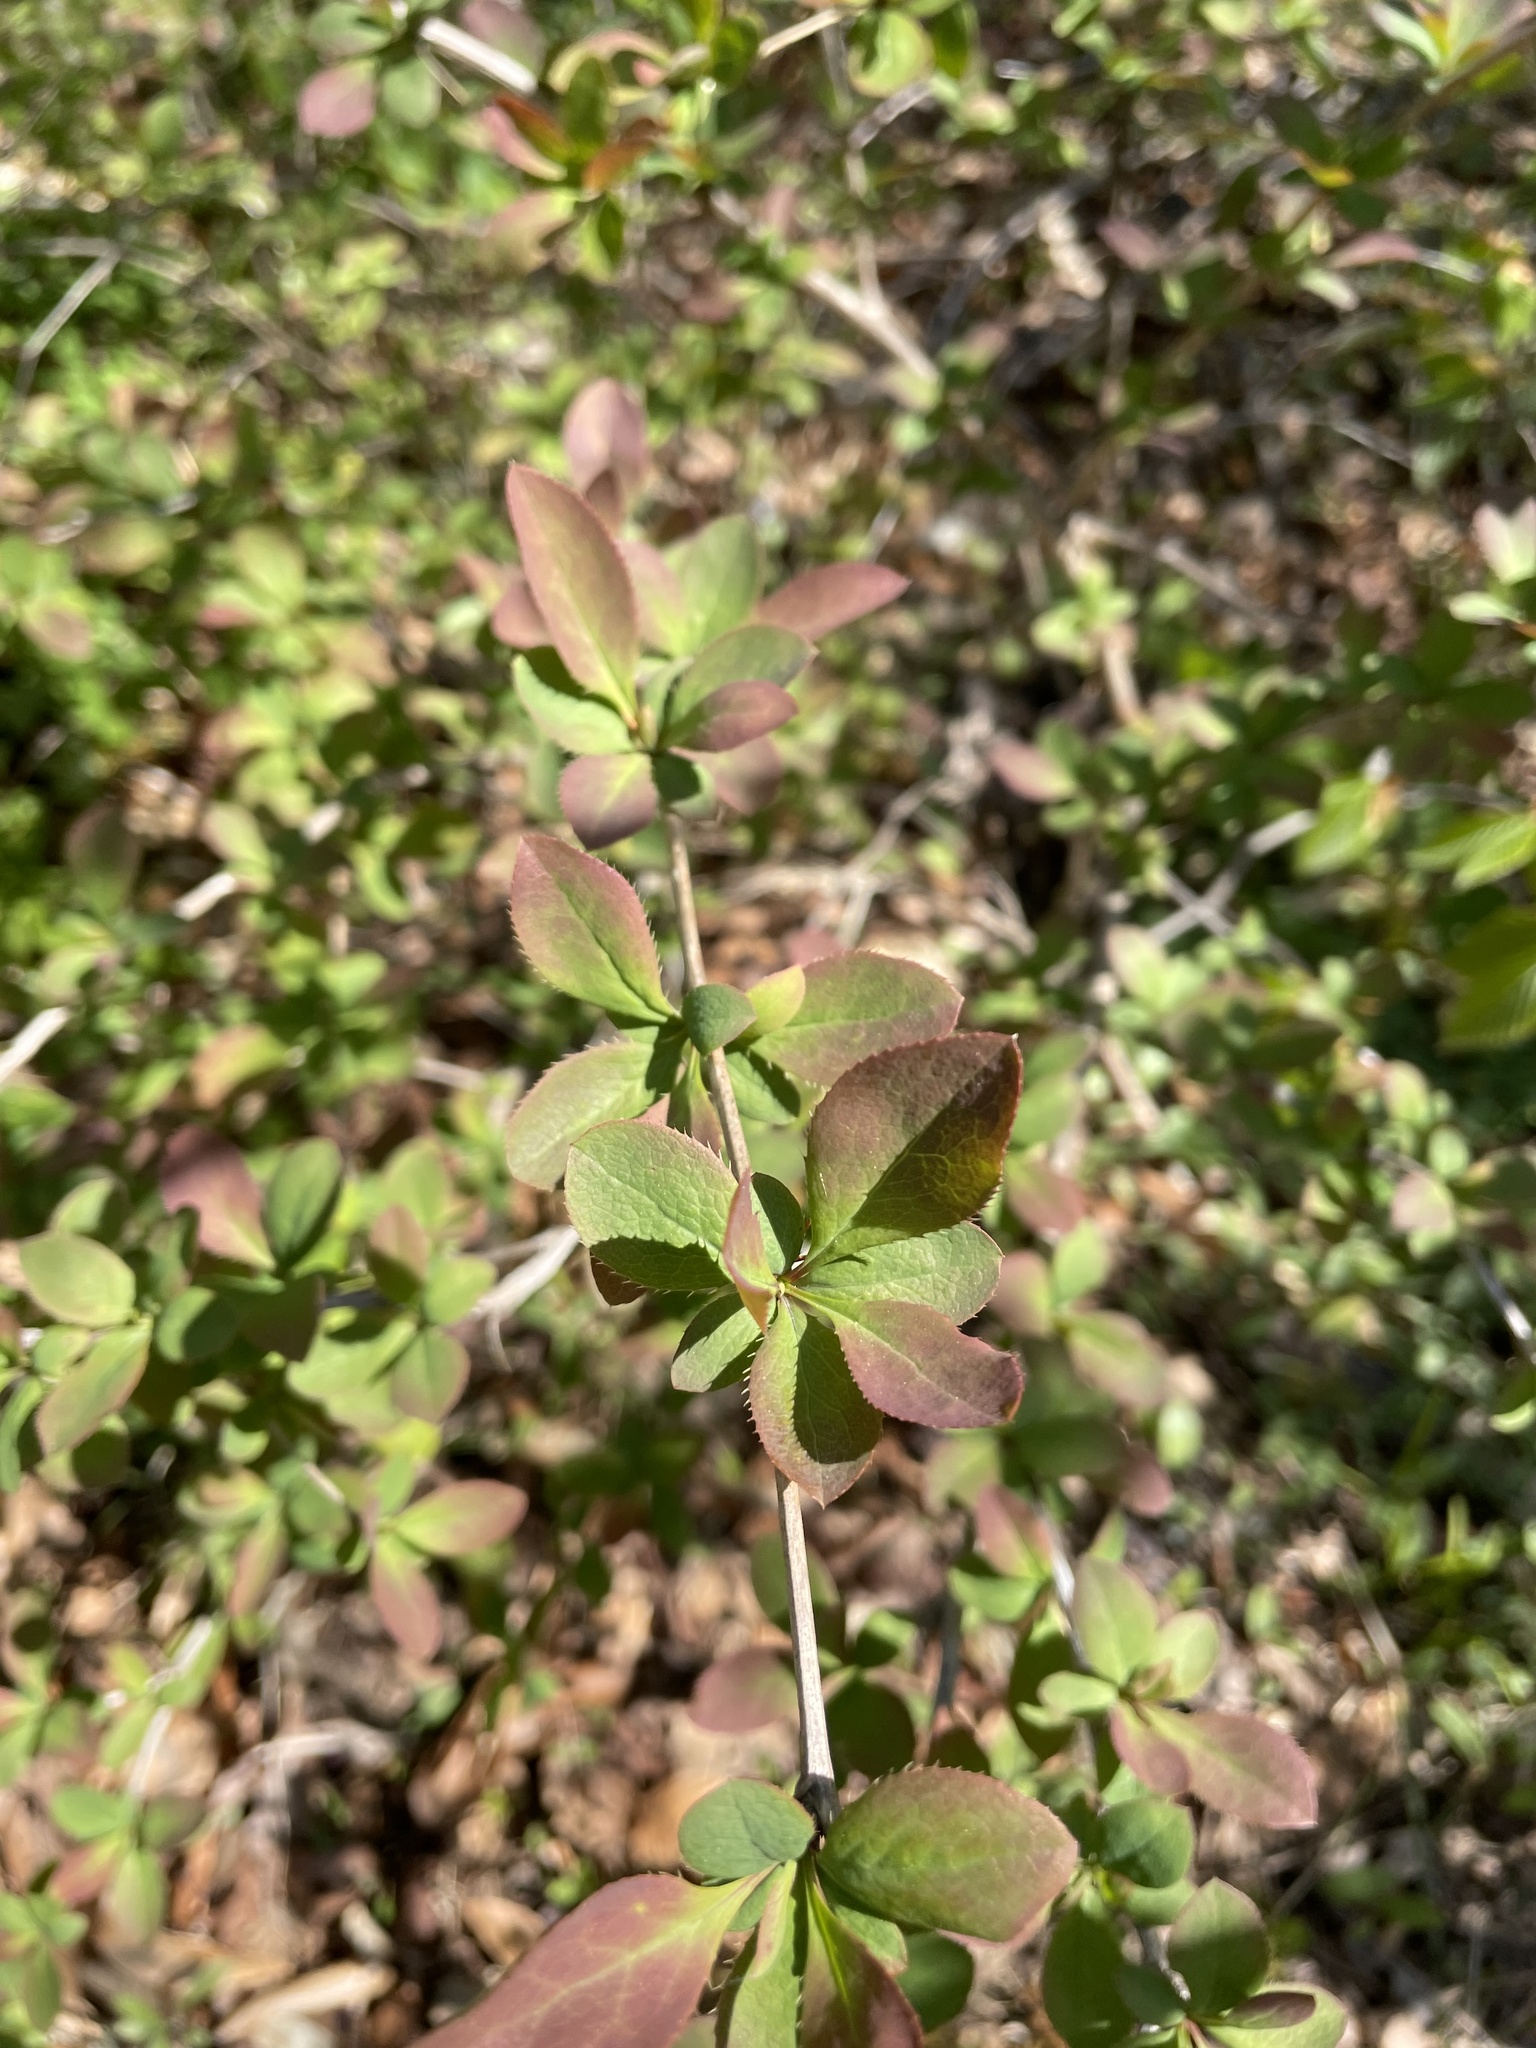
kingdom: Plantae
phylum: Tracheophyta
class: Magnoliopsida
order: Ranunculales
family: Berberidaceae
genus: Berberis
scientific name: Berberis vulgaris
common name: Barberry
